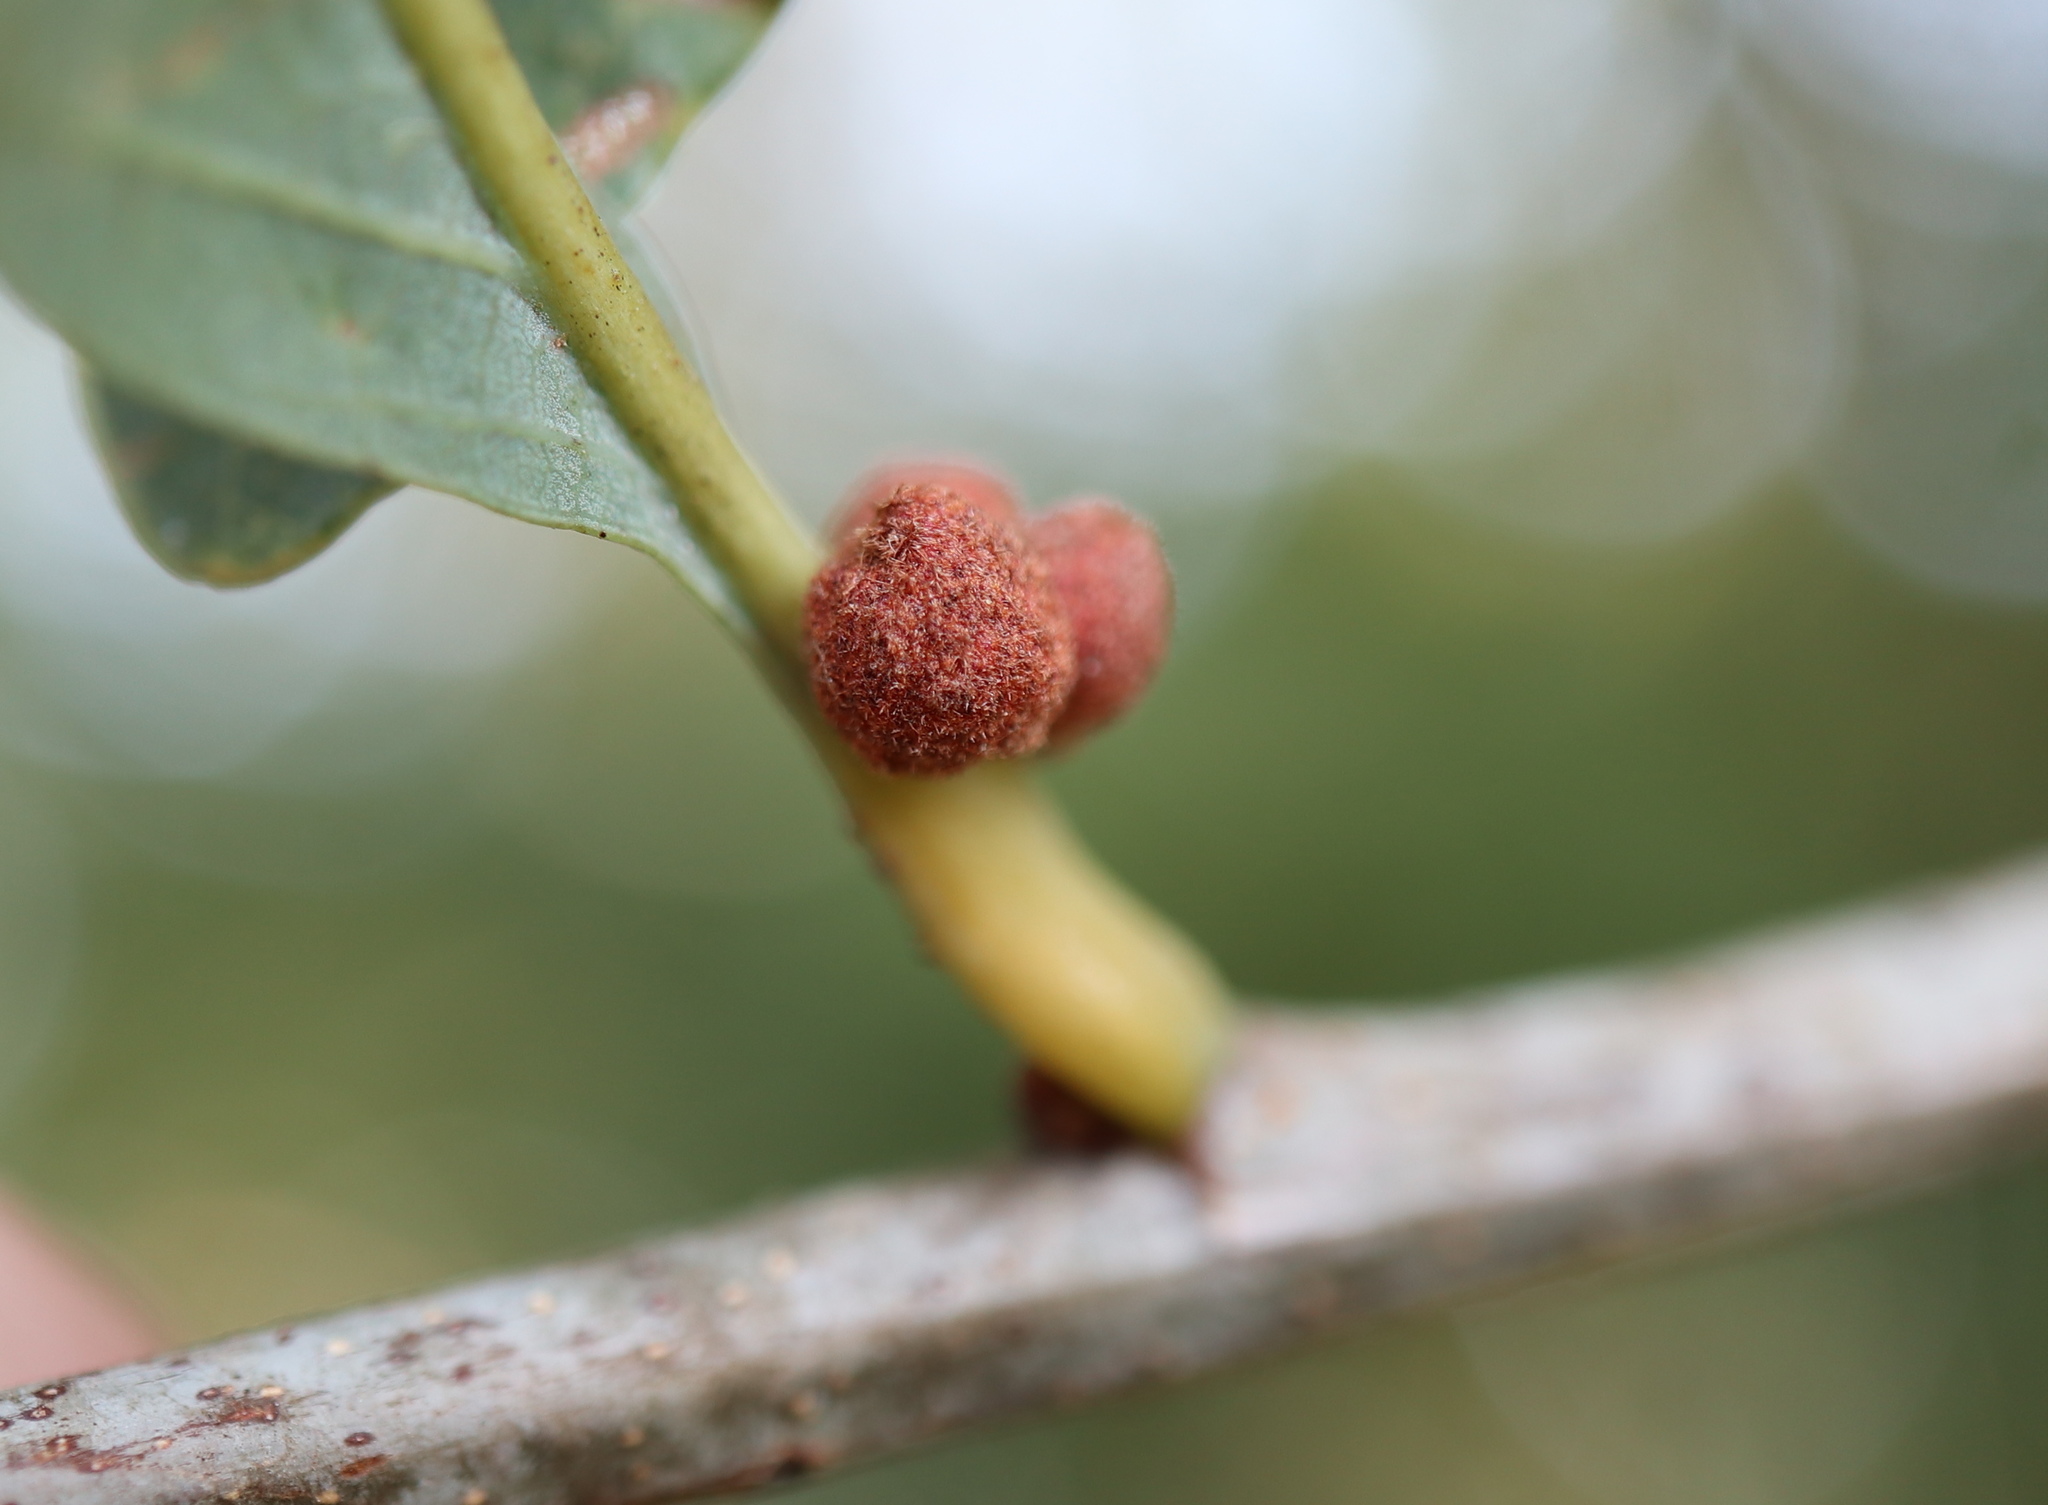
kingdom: Animalia
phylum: Arthropoda
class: Insecta
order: Hymenoptera
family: Cynipidae
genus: Andricus
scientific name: Andricus
